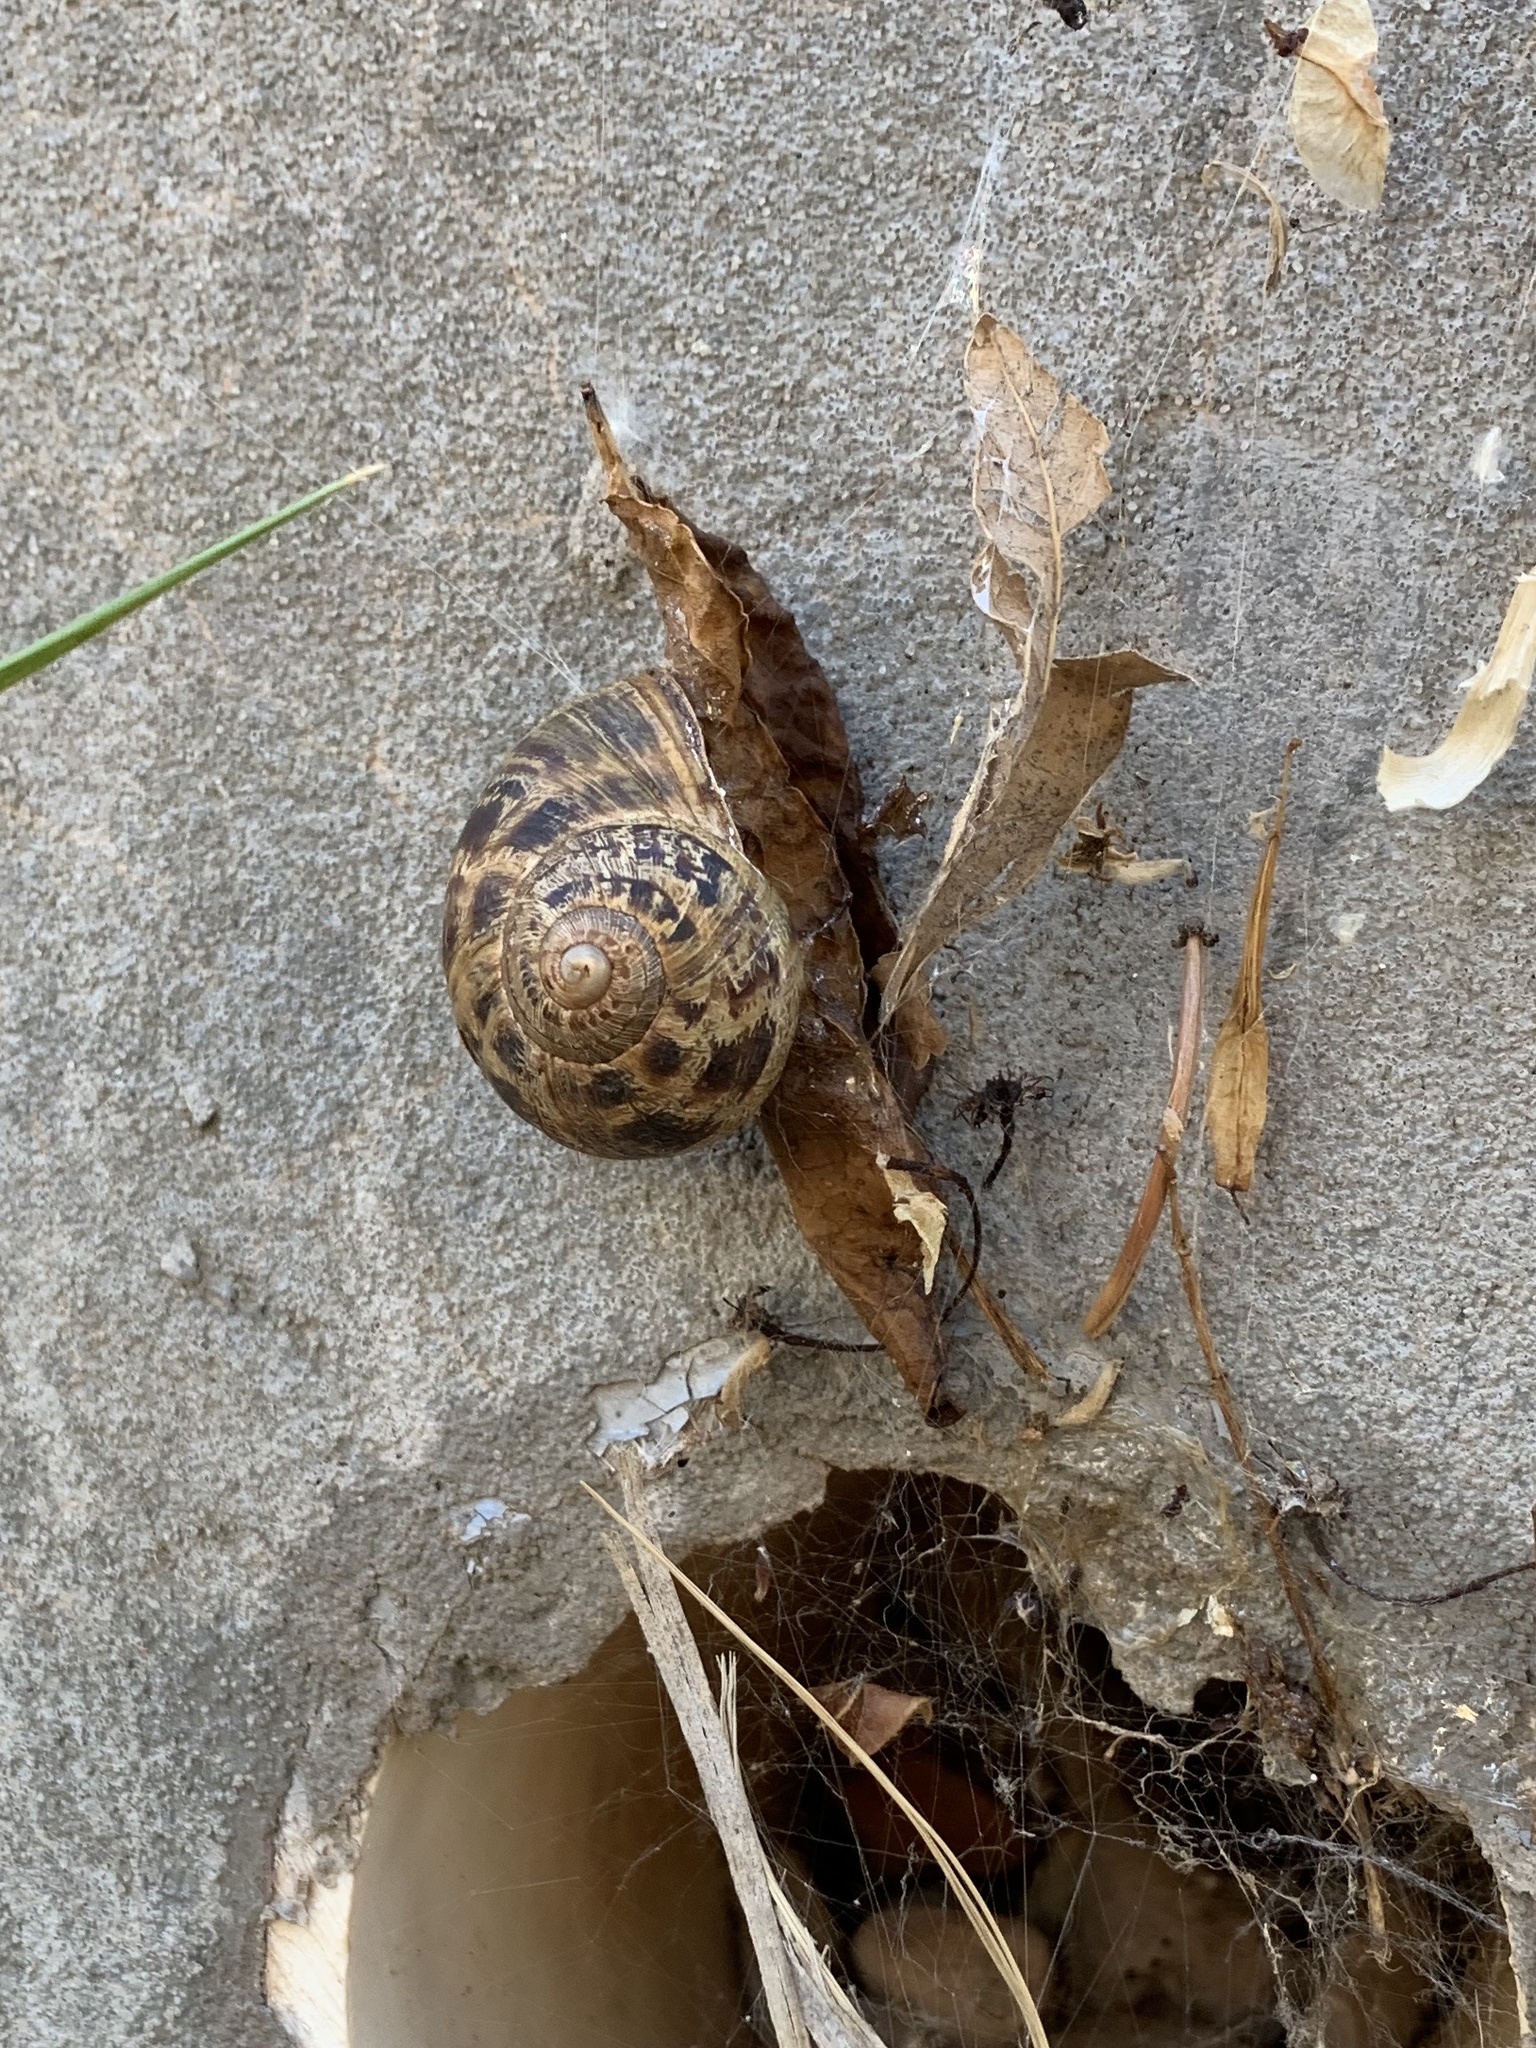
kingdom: Animalia
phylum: Mollusca
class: Gastropoda
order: Stylommatophora
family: Helicidae
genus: Cornu
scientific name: Cornu aspersum
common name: Brown garden snail
